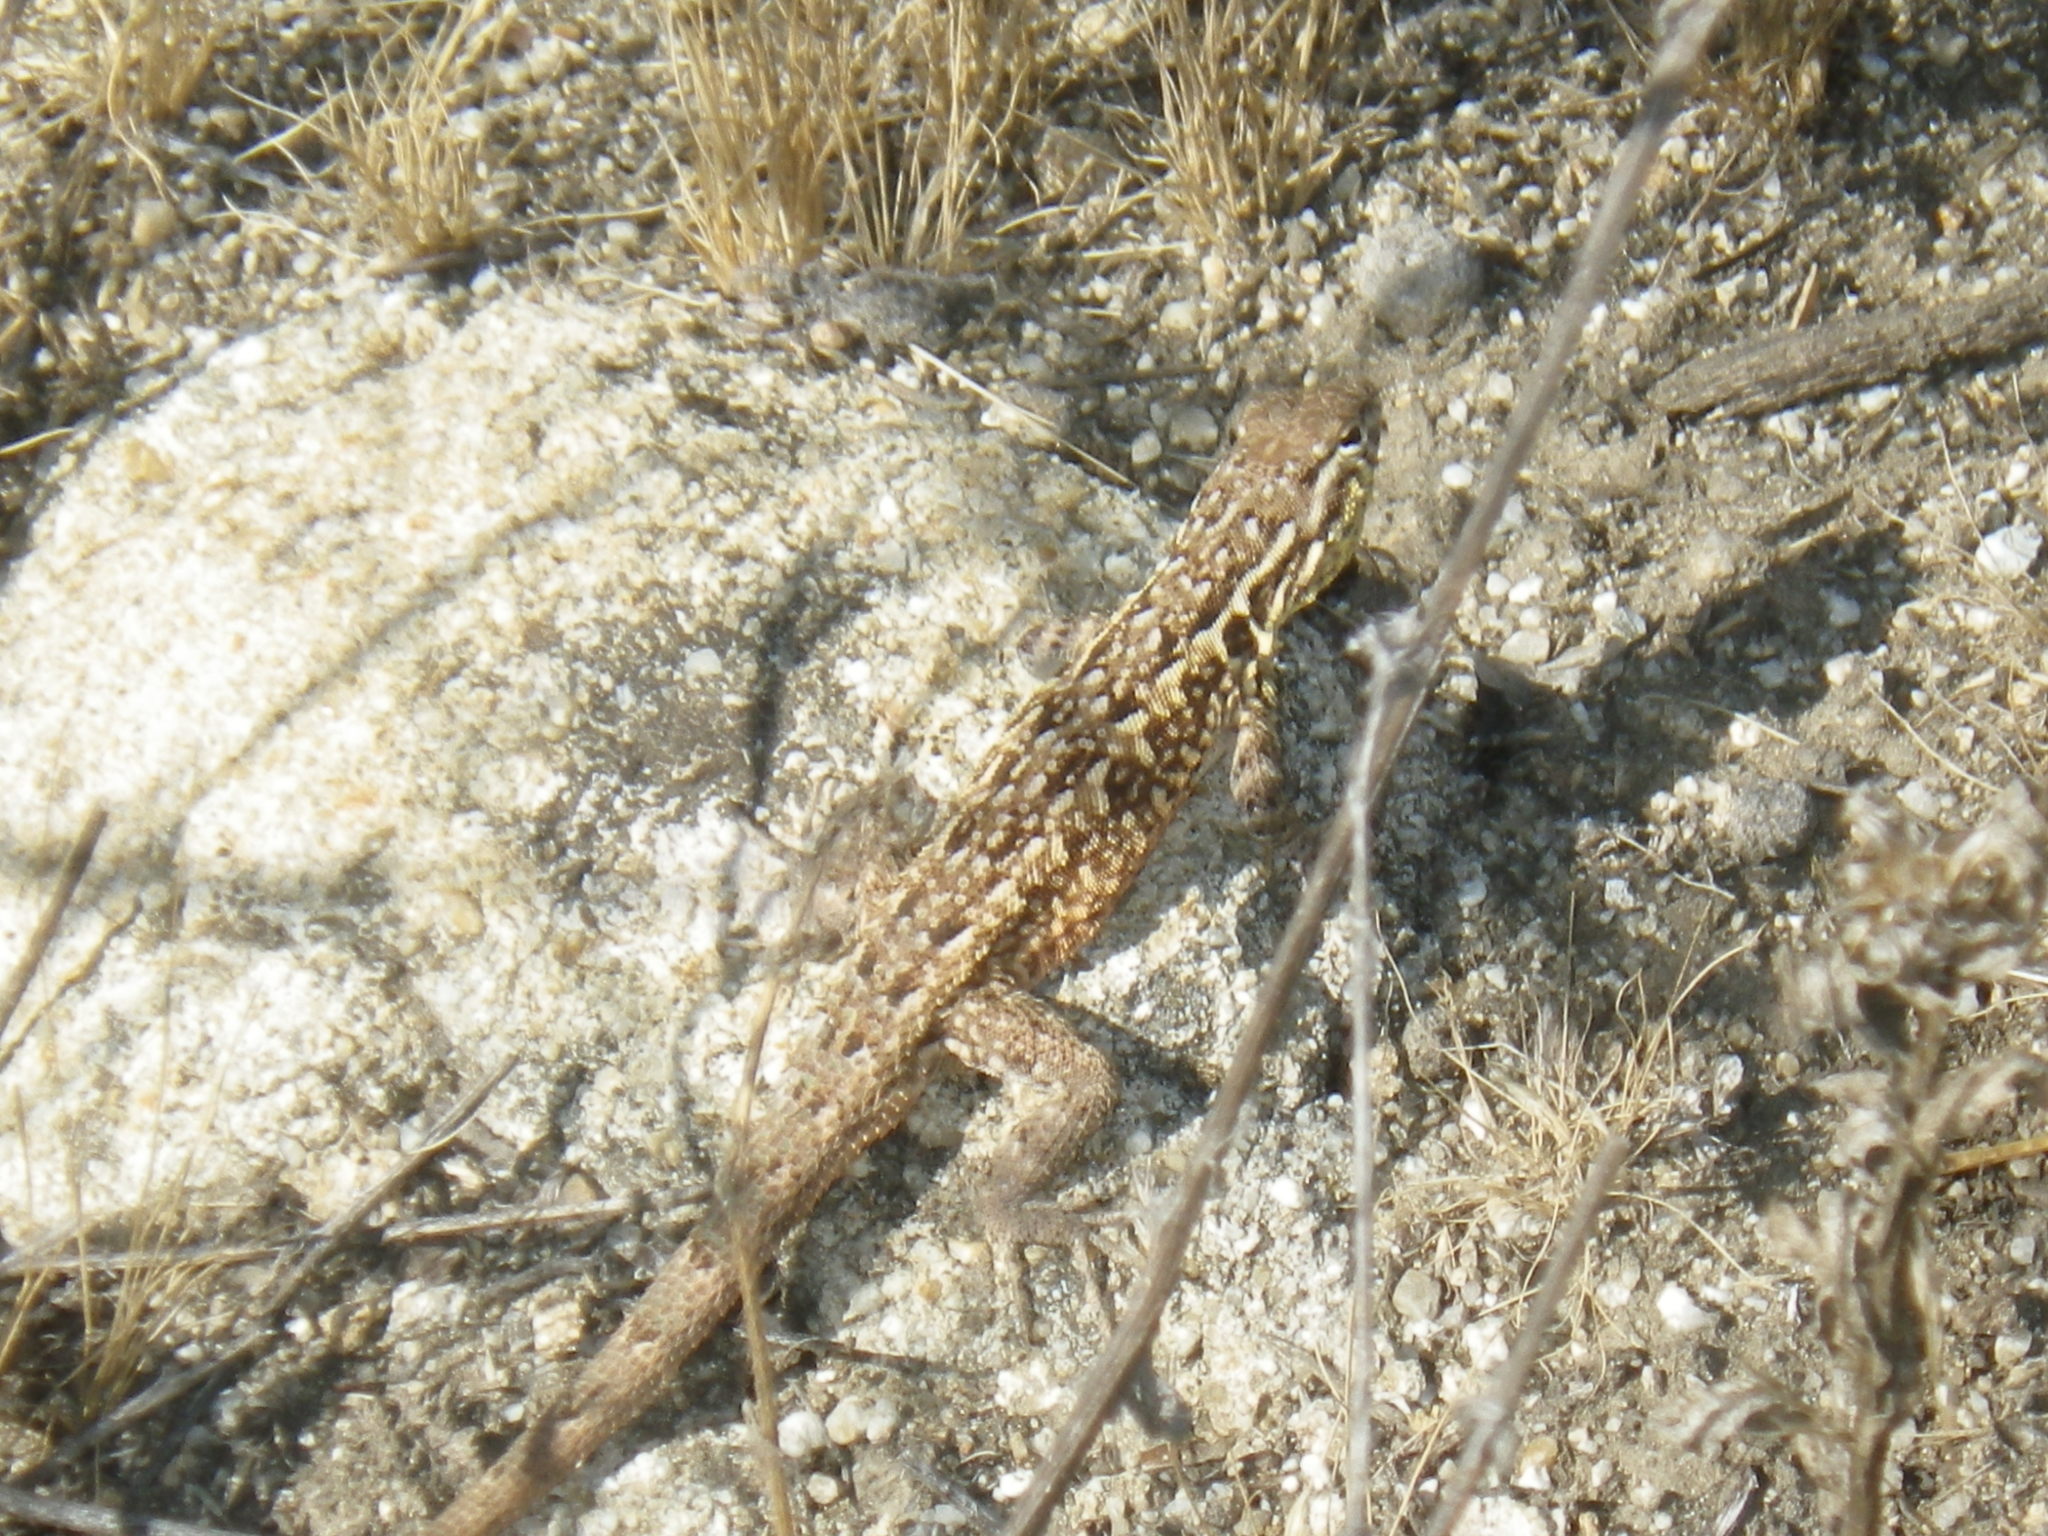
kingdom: Animalia
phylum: Chordata
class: Squamata
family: Phrynosomatidae
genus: Uta
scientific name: Uta stansburiana
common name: Side-blotched lizard
